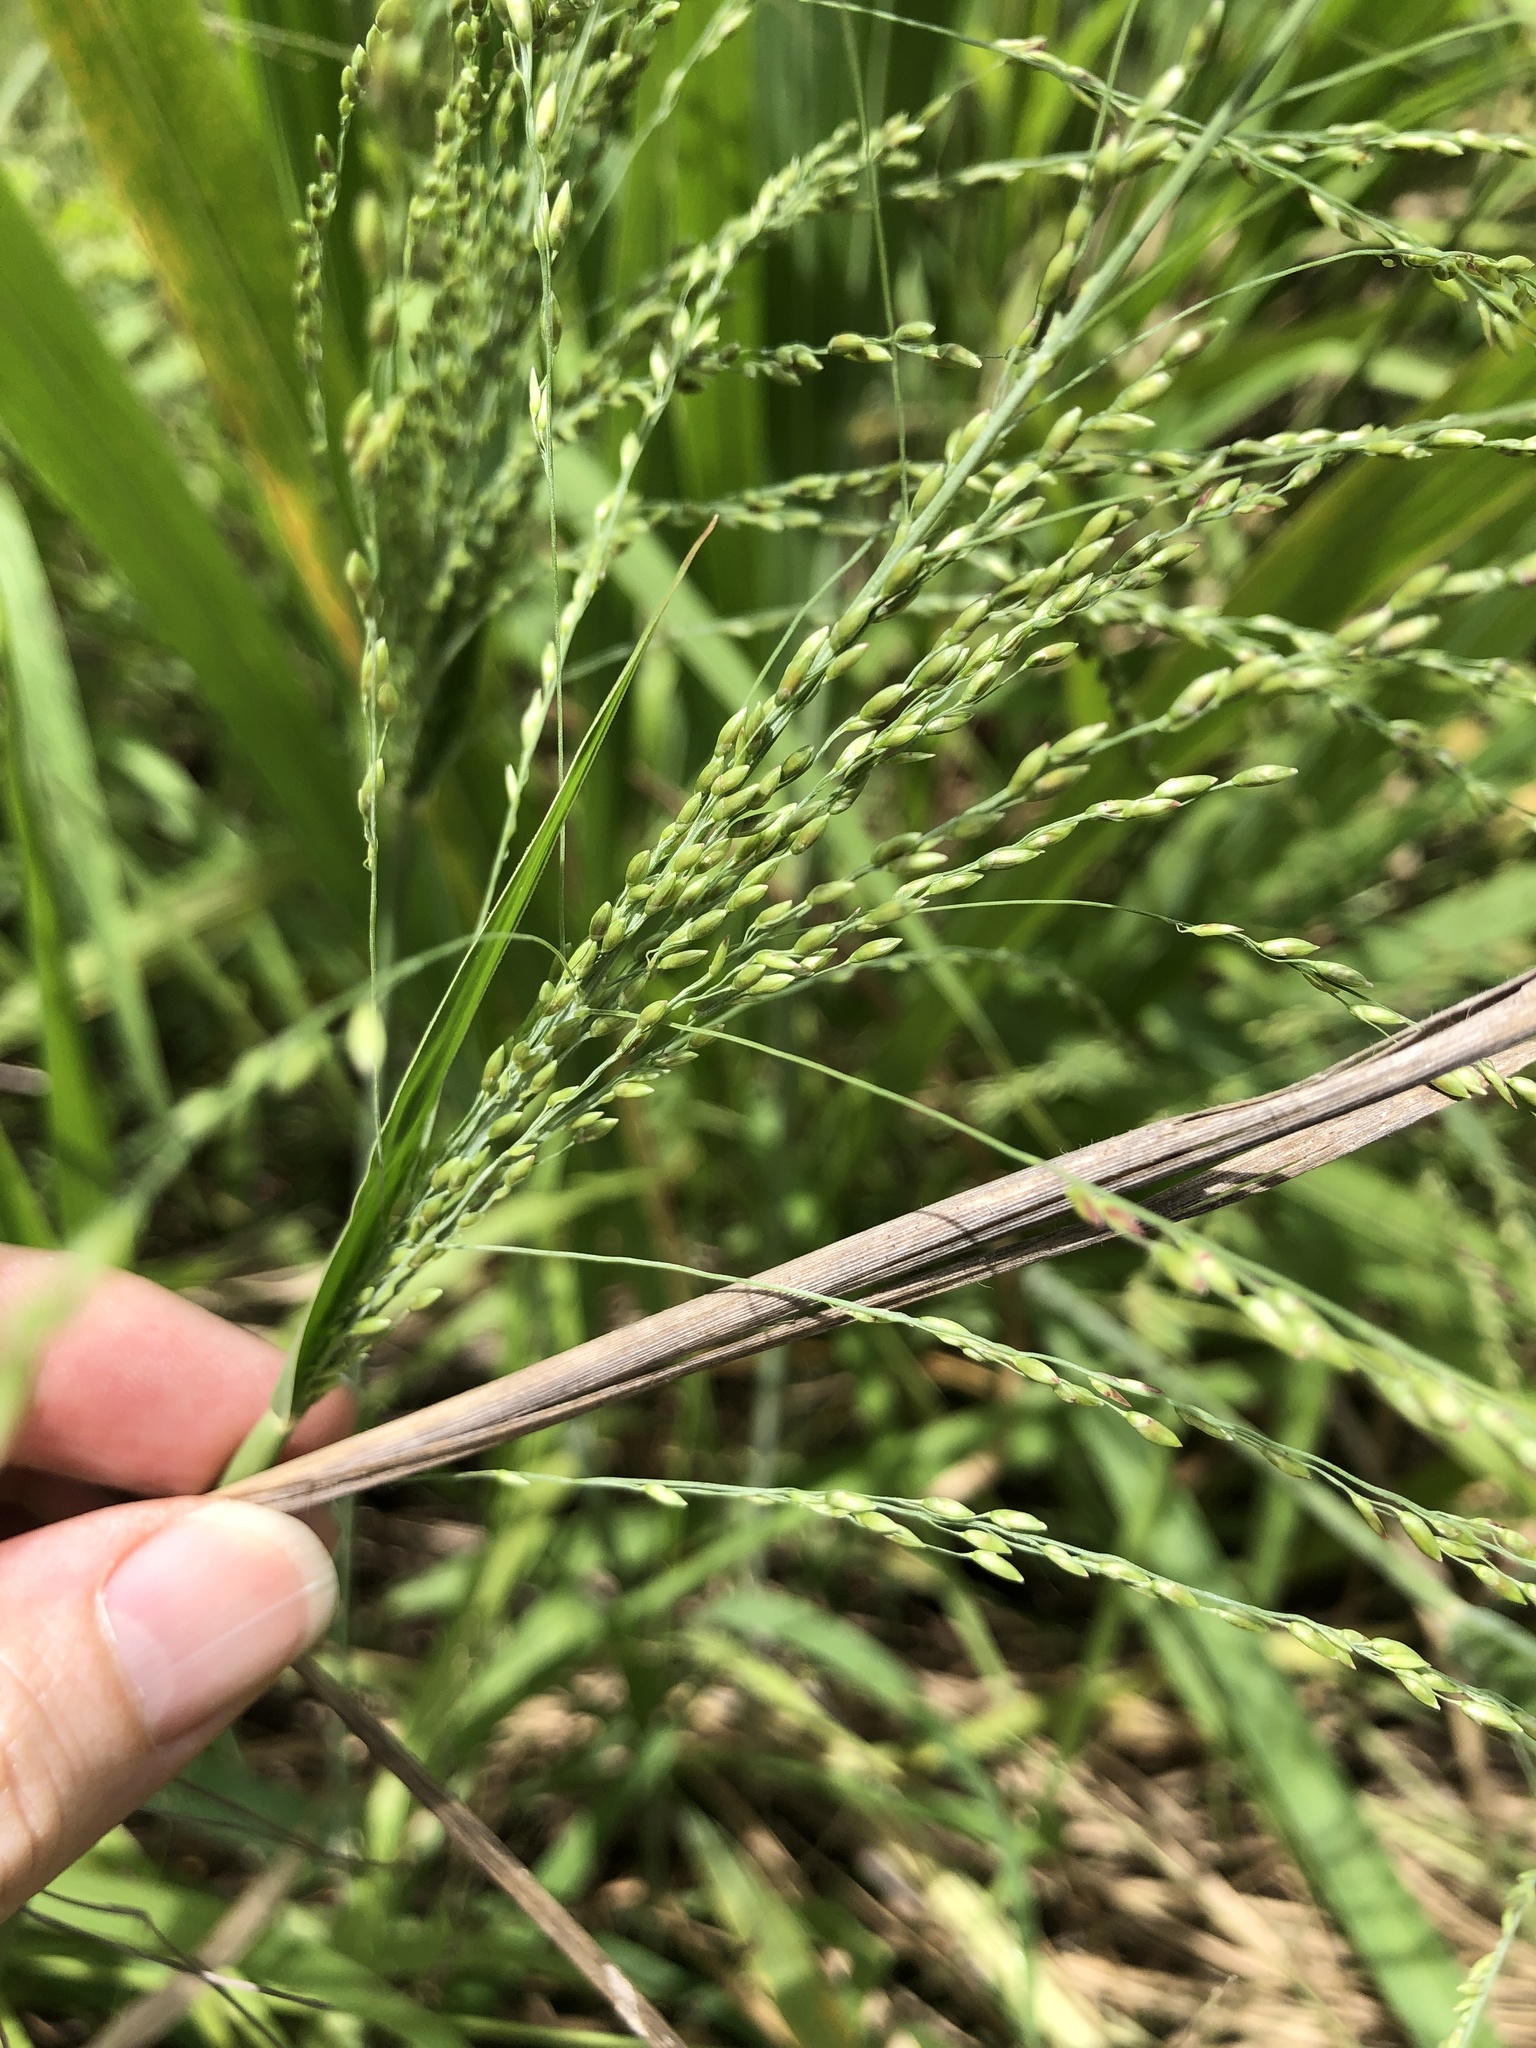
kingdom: Plantae
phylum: Tracheophyta
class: Liliopsida
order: Poales
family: Poaceae
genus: Megathyrsus
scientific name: Megathyrsus maximus
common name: Guineagrass
